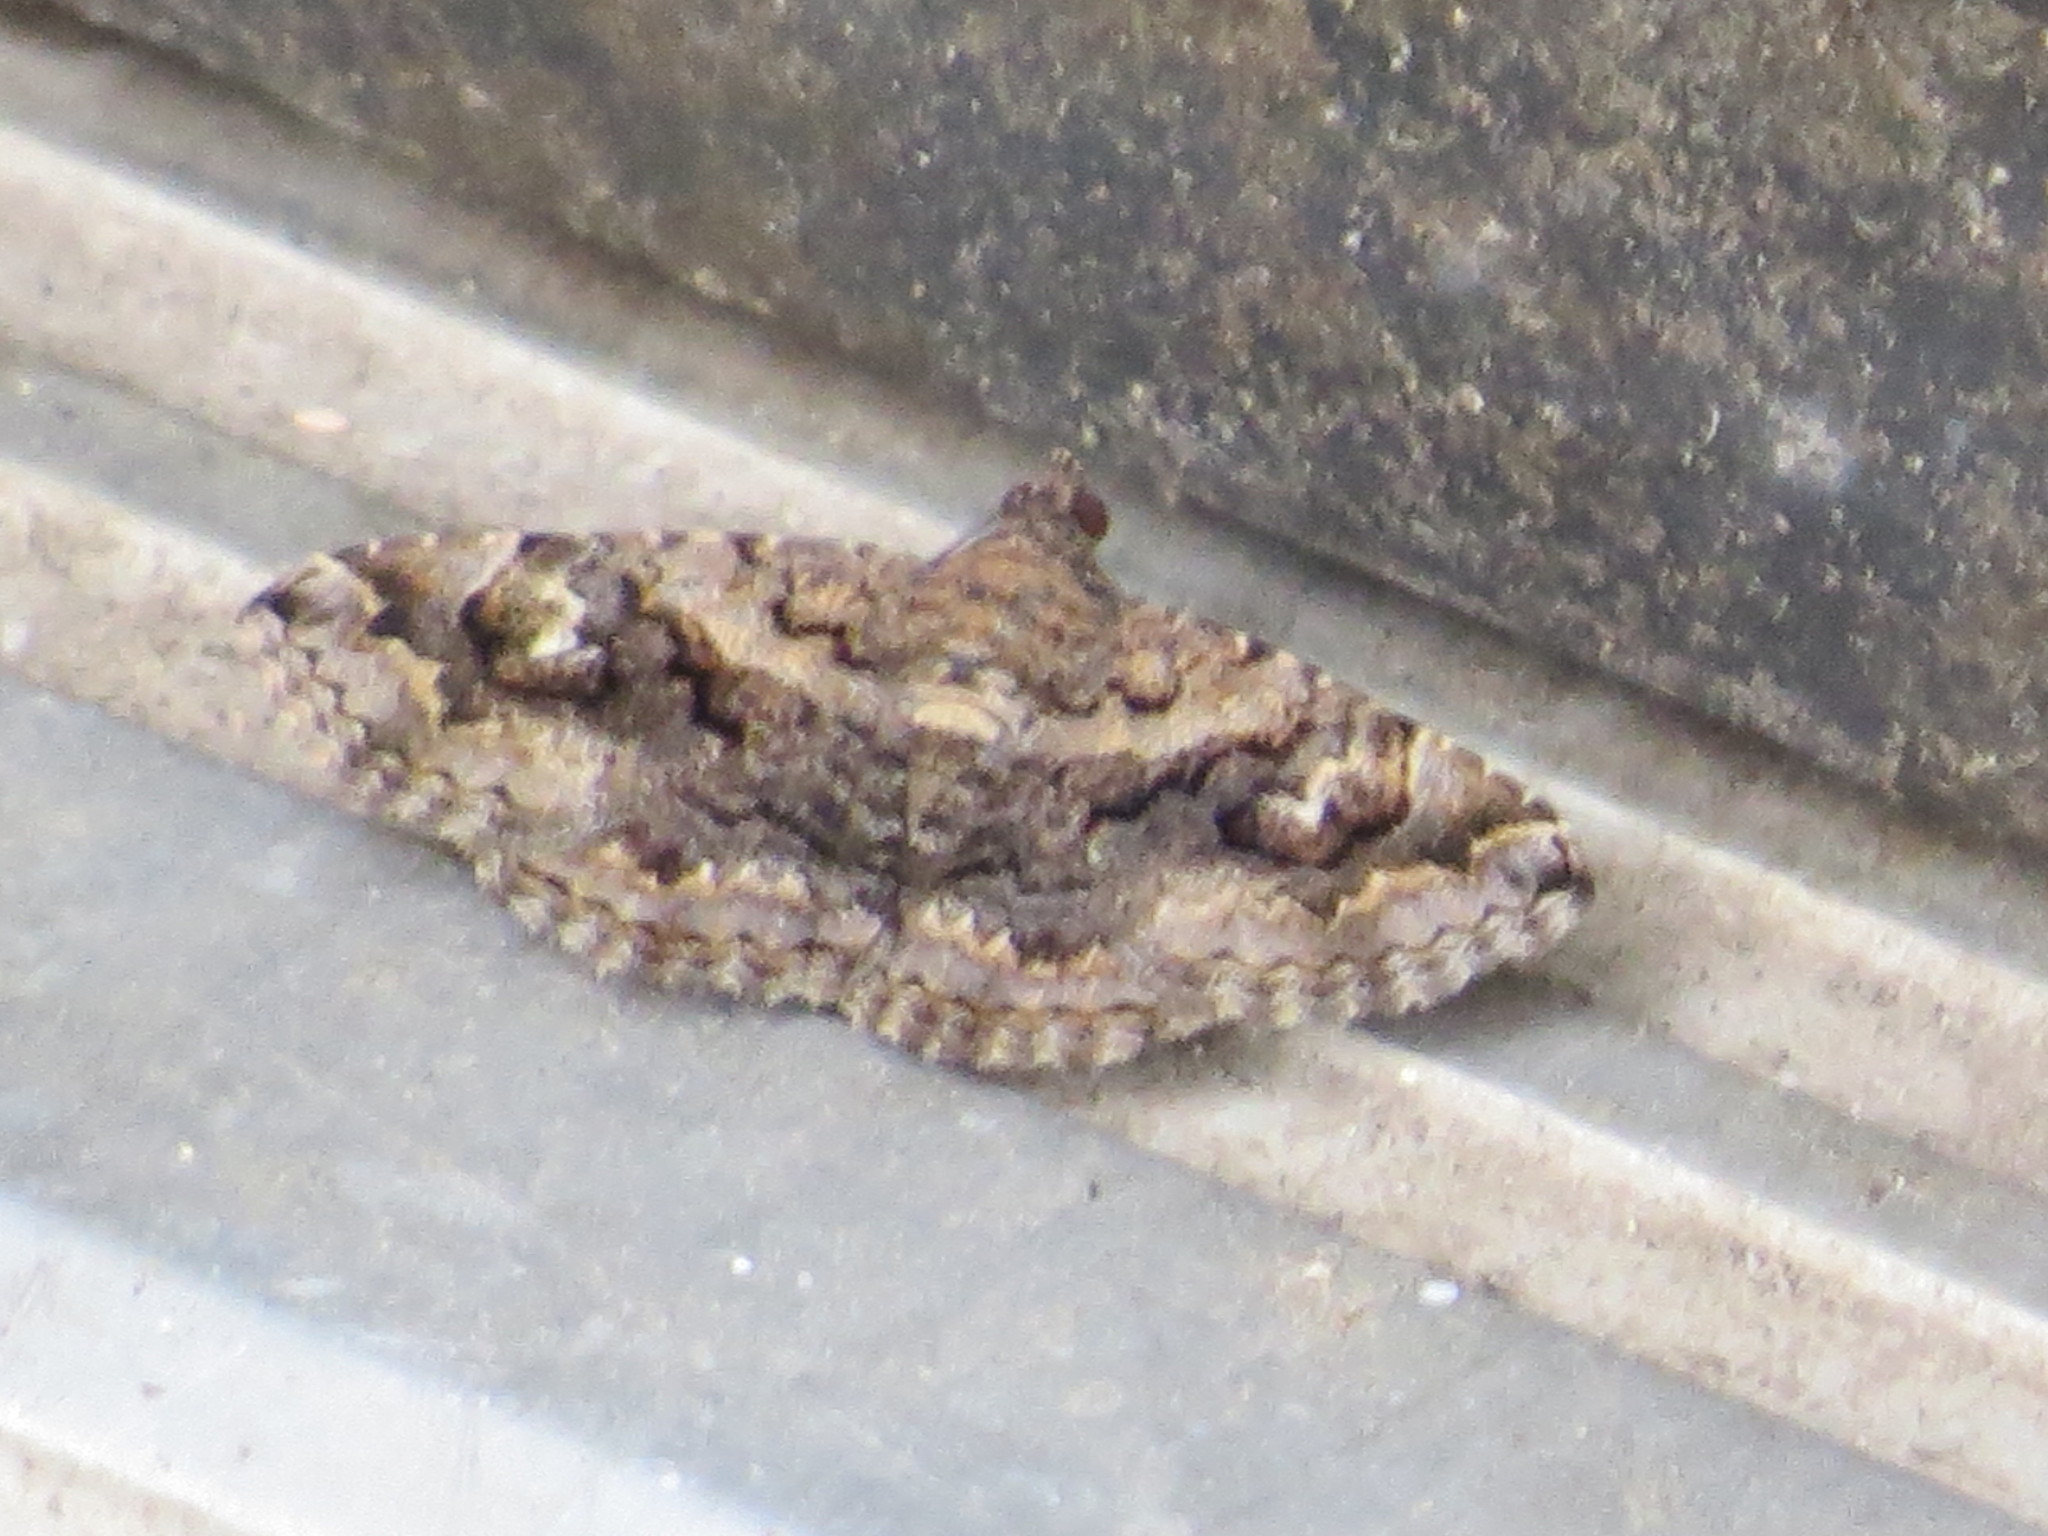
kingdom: Animalia
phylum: Arthropoda
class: Insecta
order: Lepidoptera
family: Erebidae
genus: Toxonprucha
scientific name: Toxonprucha repentis
